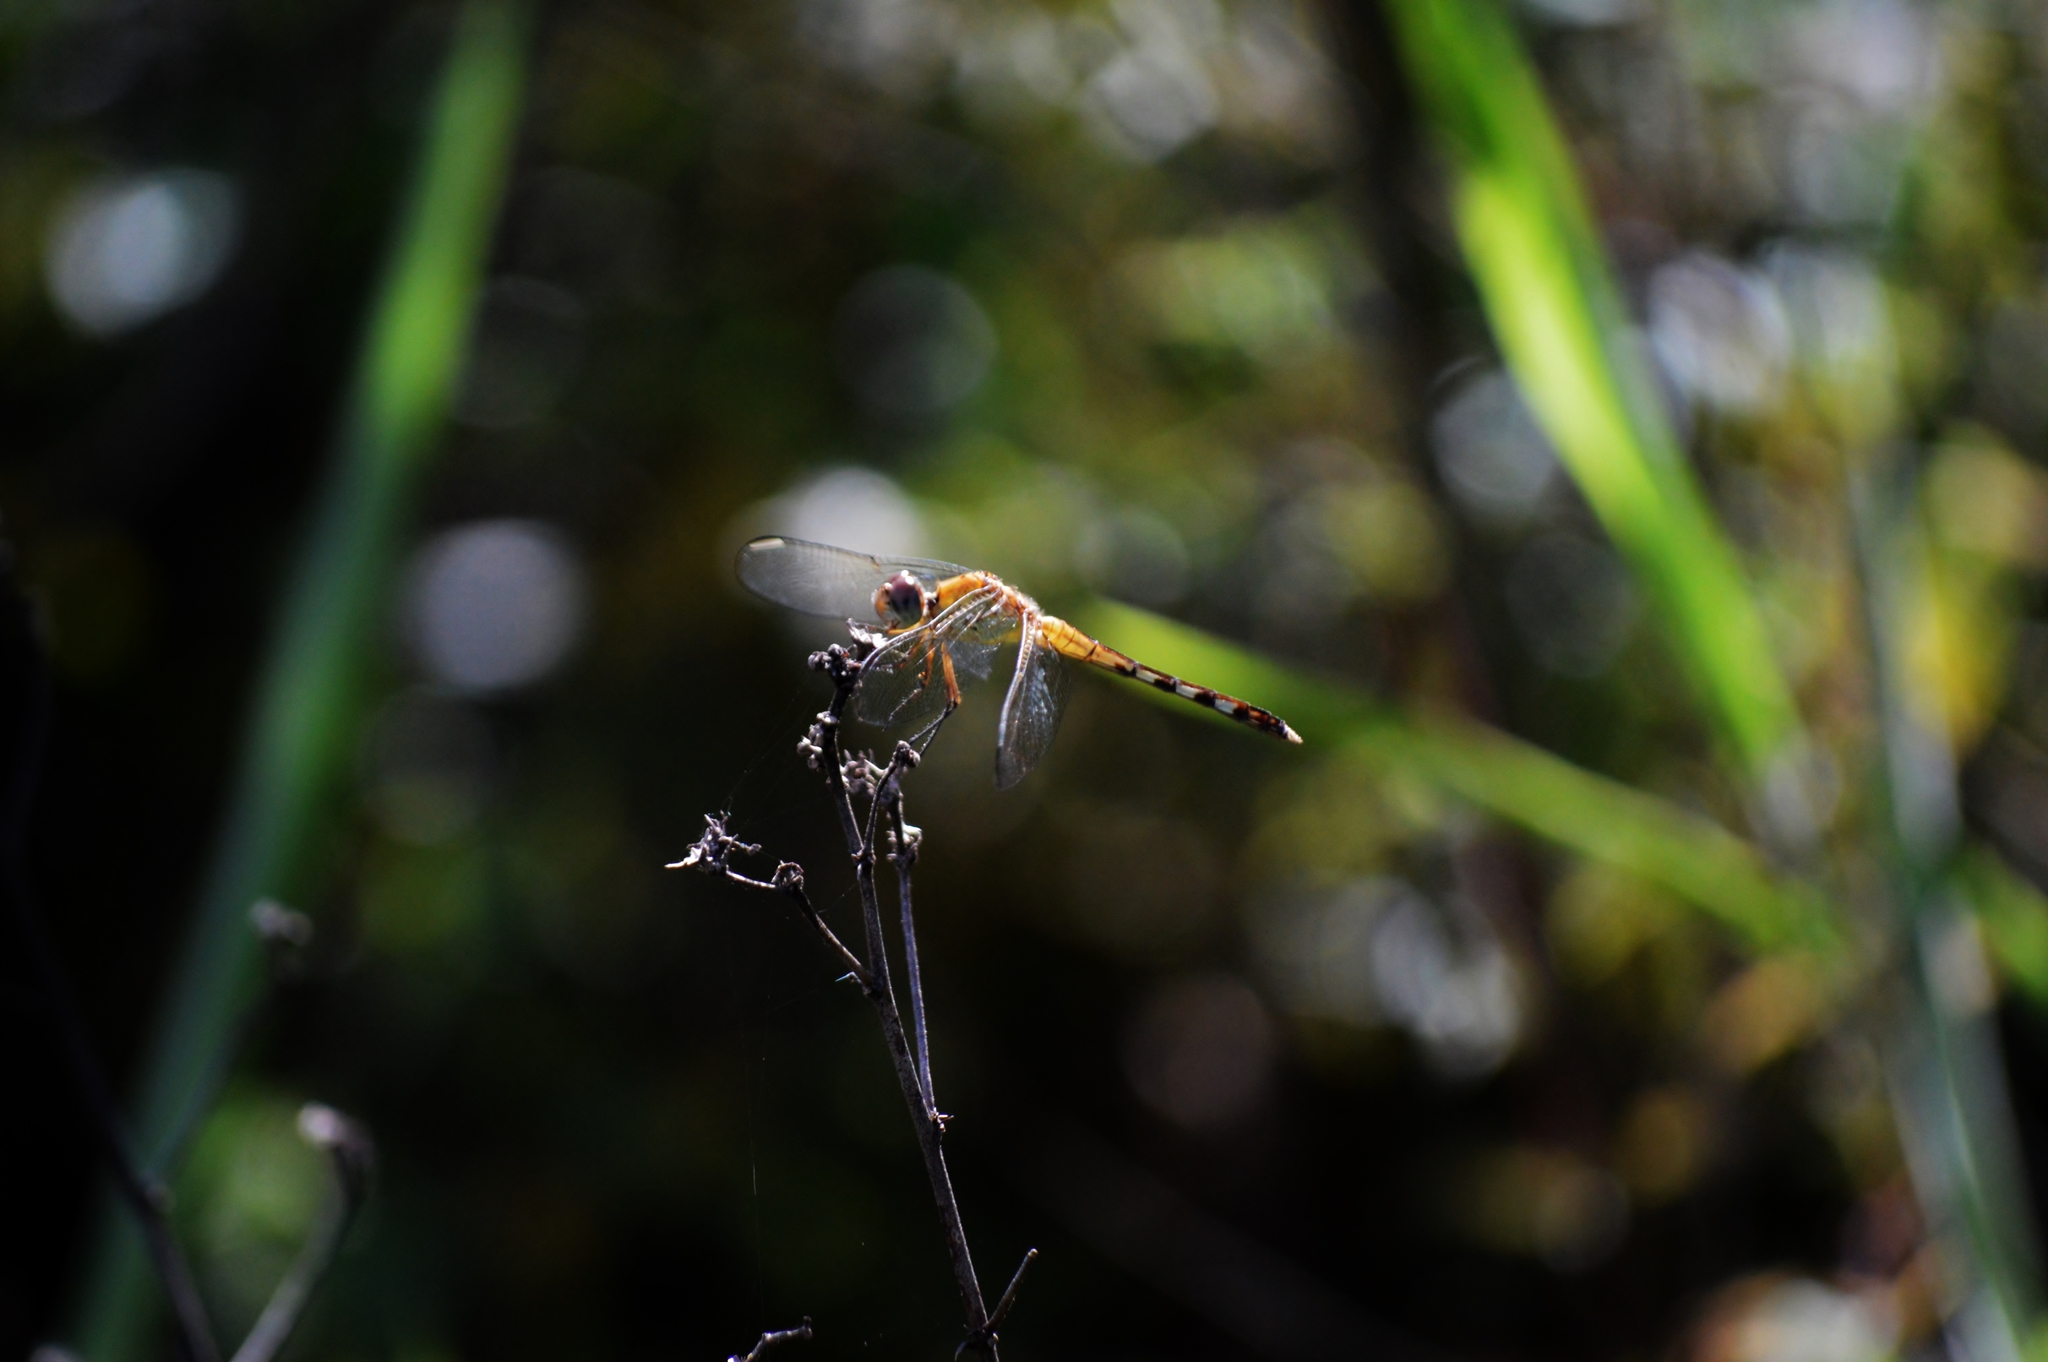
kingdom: Animalia
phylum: Arthropoda
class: Insecta
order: Odonata
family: Libellulidae
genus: Erythrodiplax
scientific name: Erythrodiplax umbrata
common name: Band-winged dragonlet
